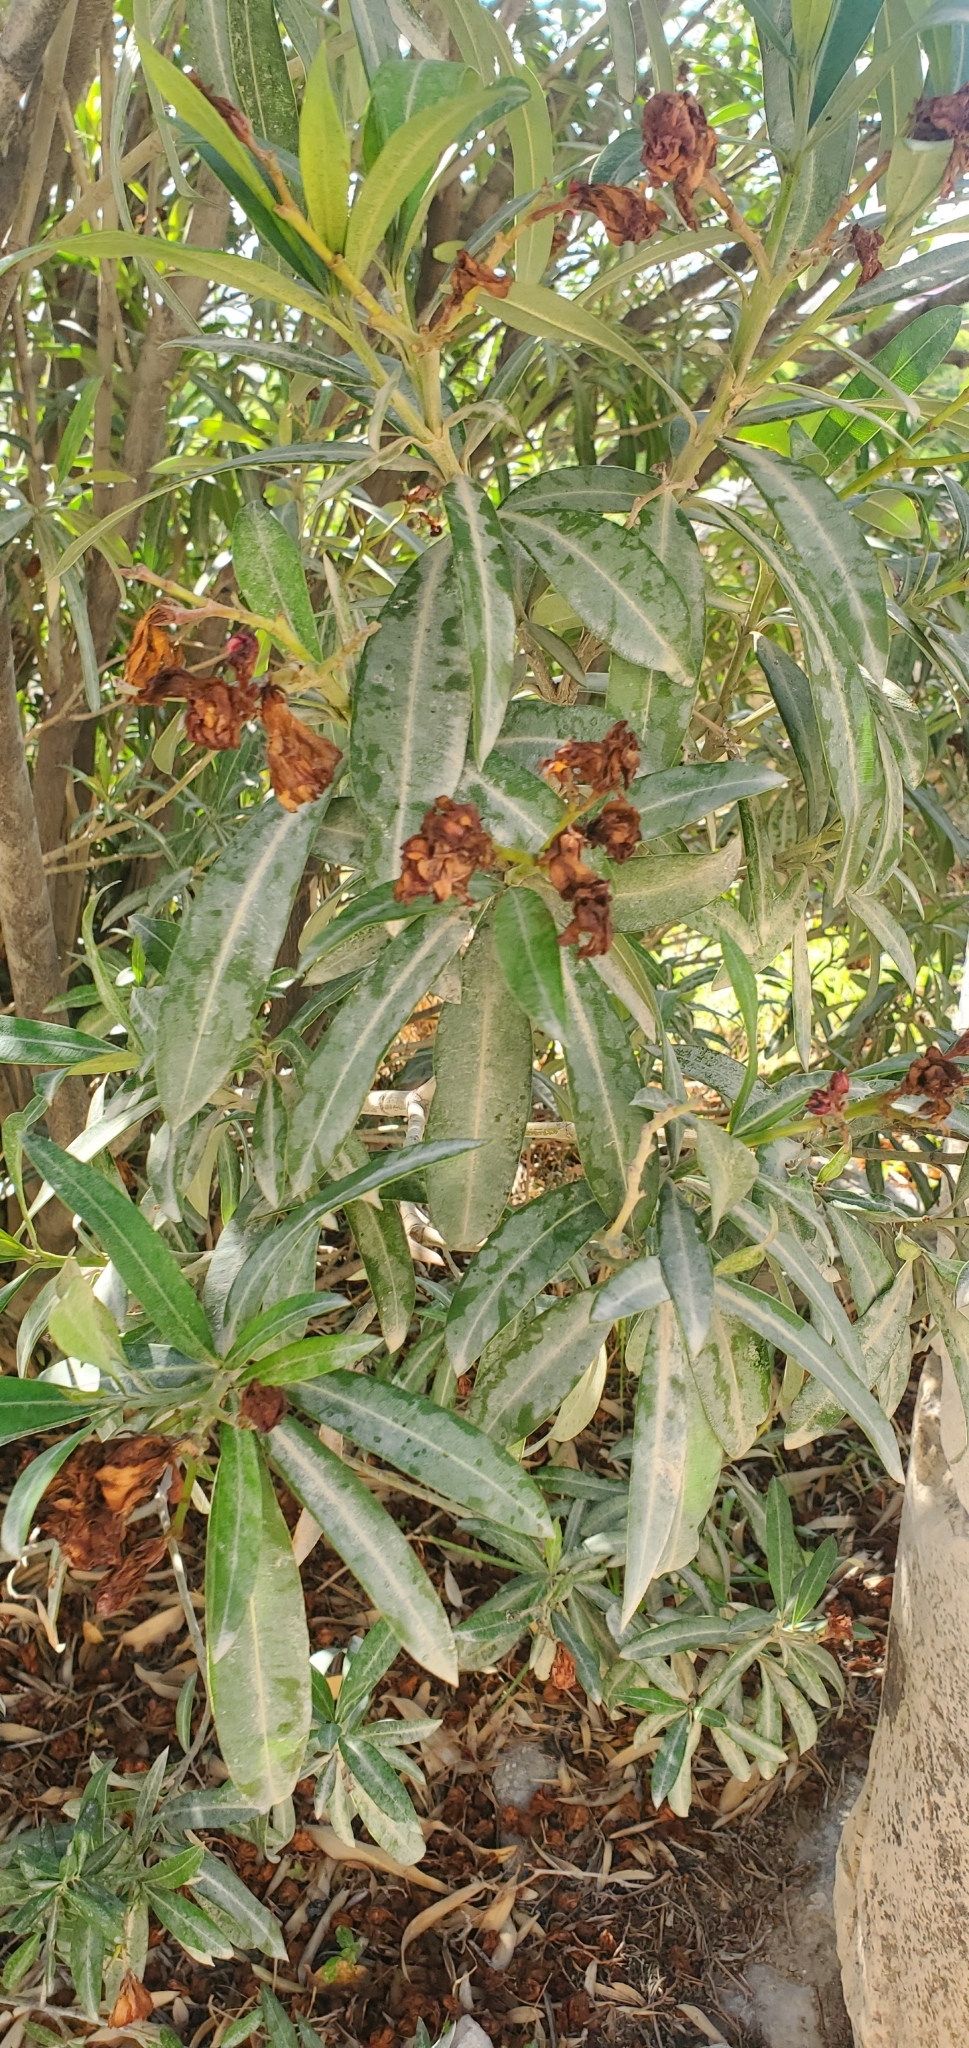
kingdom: Plantae
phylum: Tracheophyta
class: Magnoliopsida
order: Gentianales
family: Apocynaceae
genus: Nerium
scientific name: Nerium oleander
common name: Oleander
